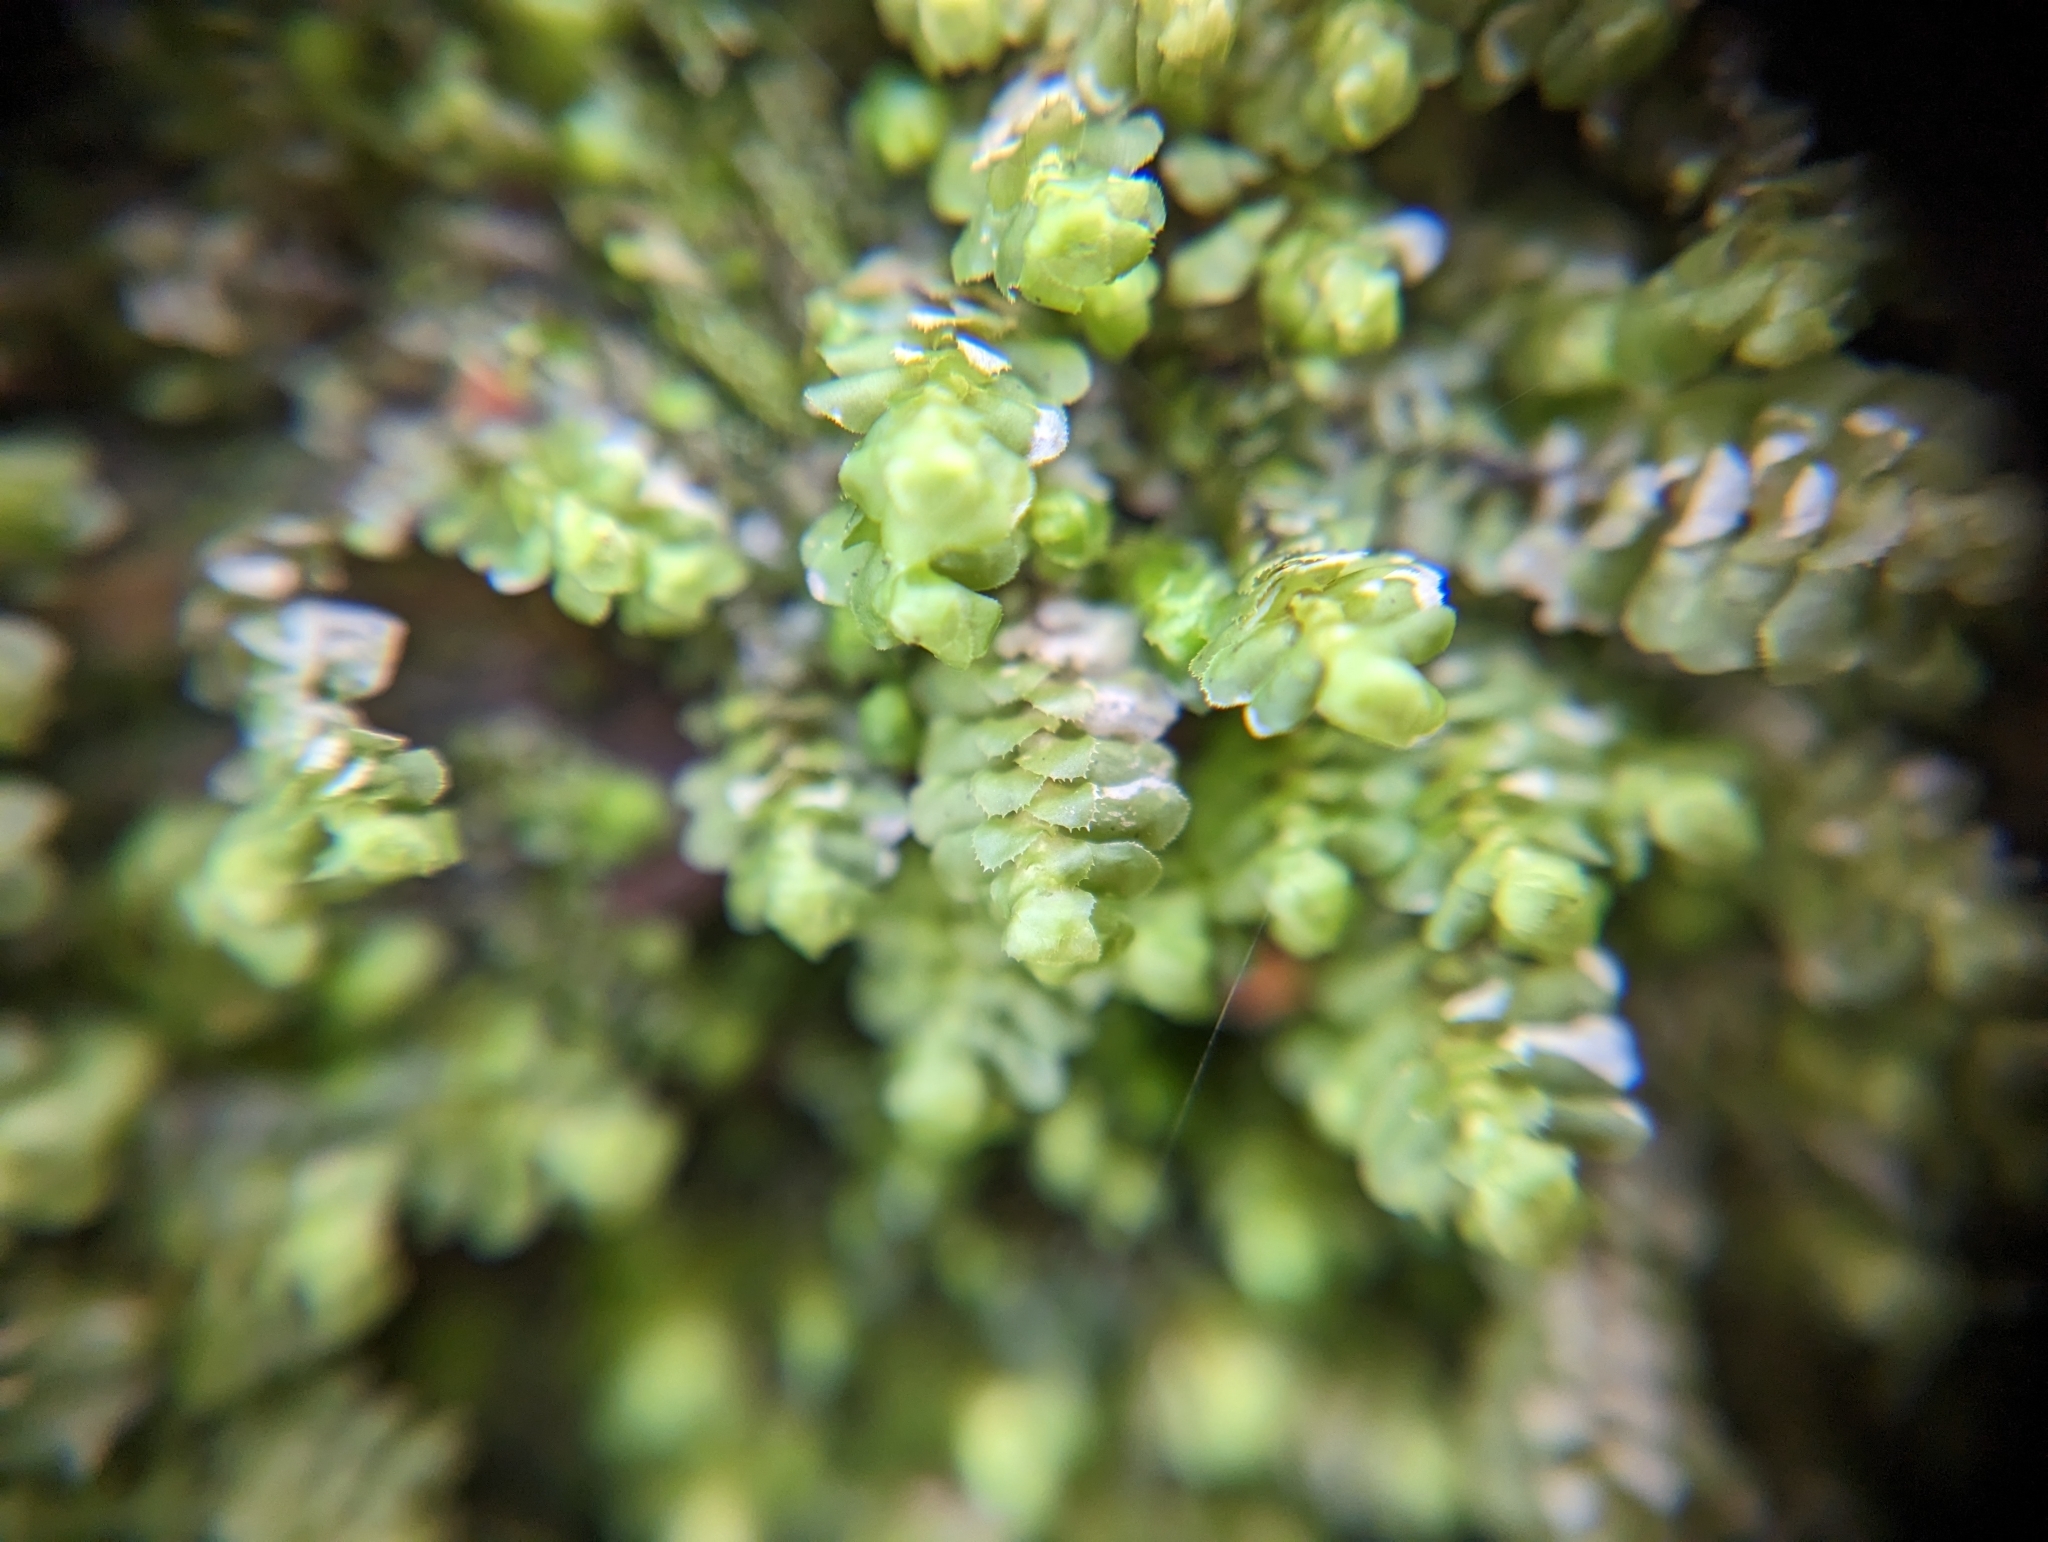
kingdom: Plantae
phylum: Marchantiophyta
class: Jungermanniopsida
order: Jungermanniales
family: Scapaniaceae
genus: Scapania
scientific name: Scapania bolanderi
